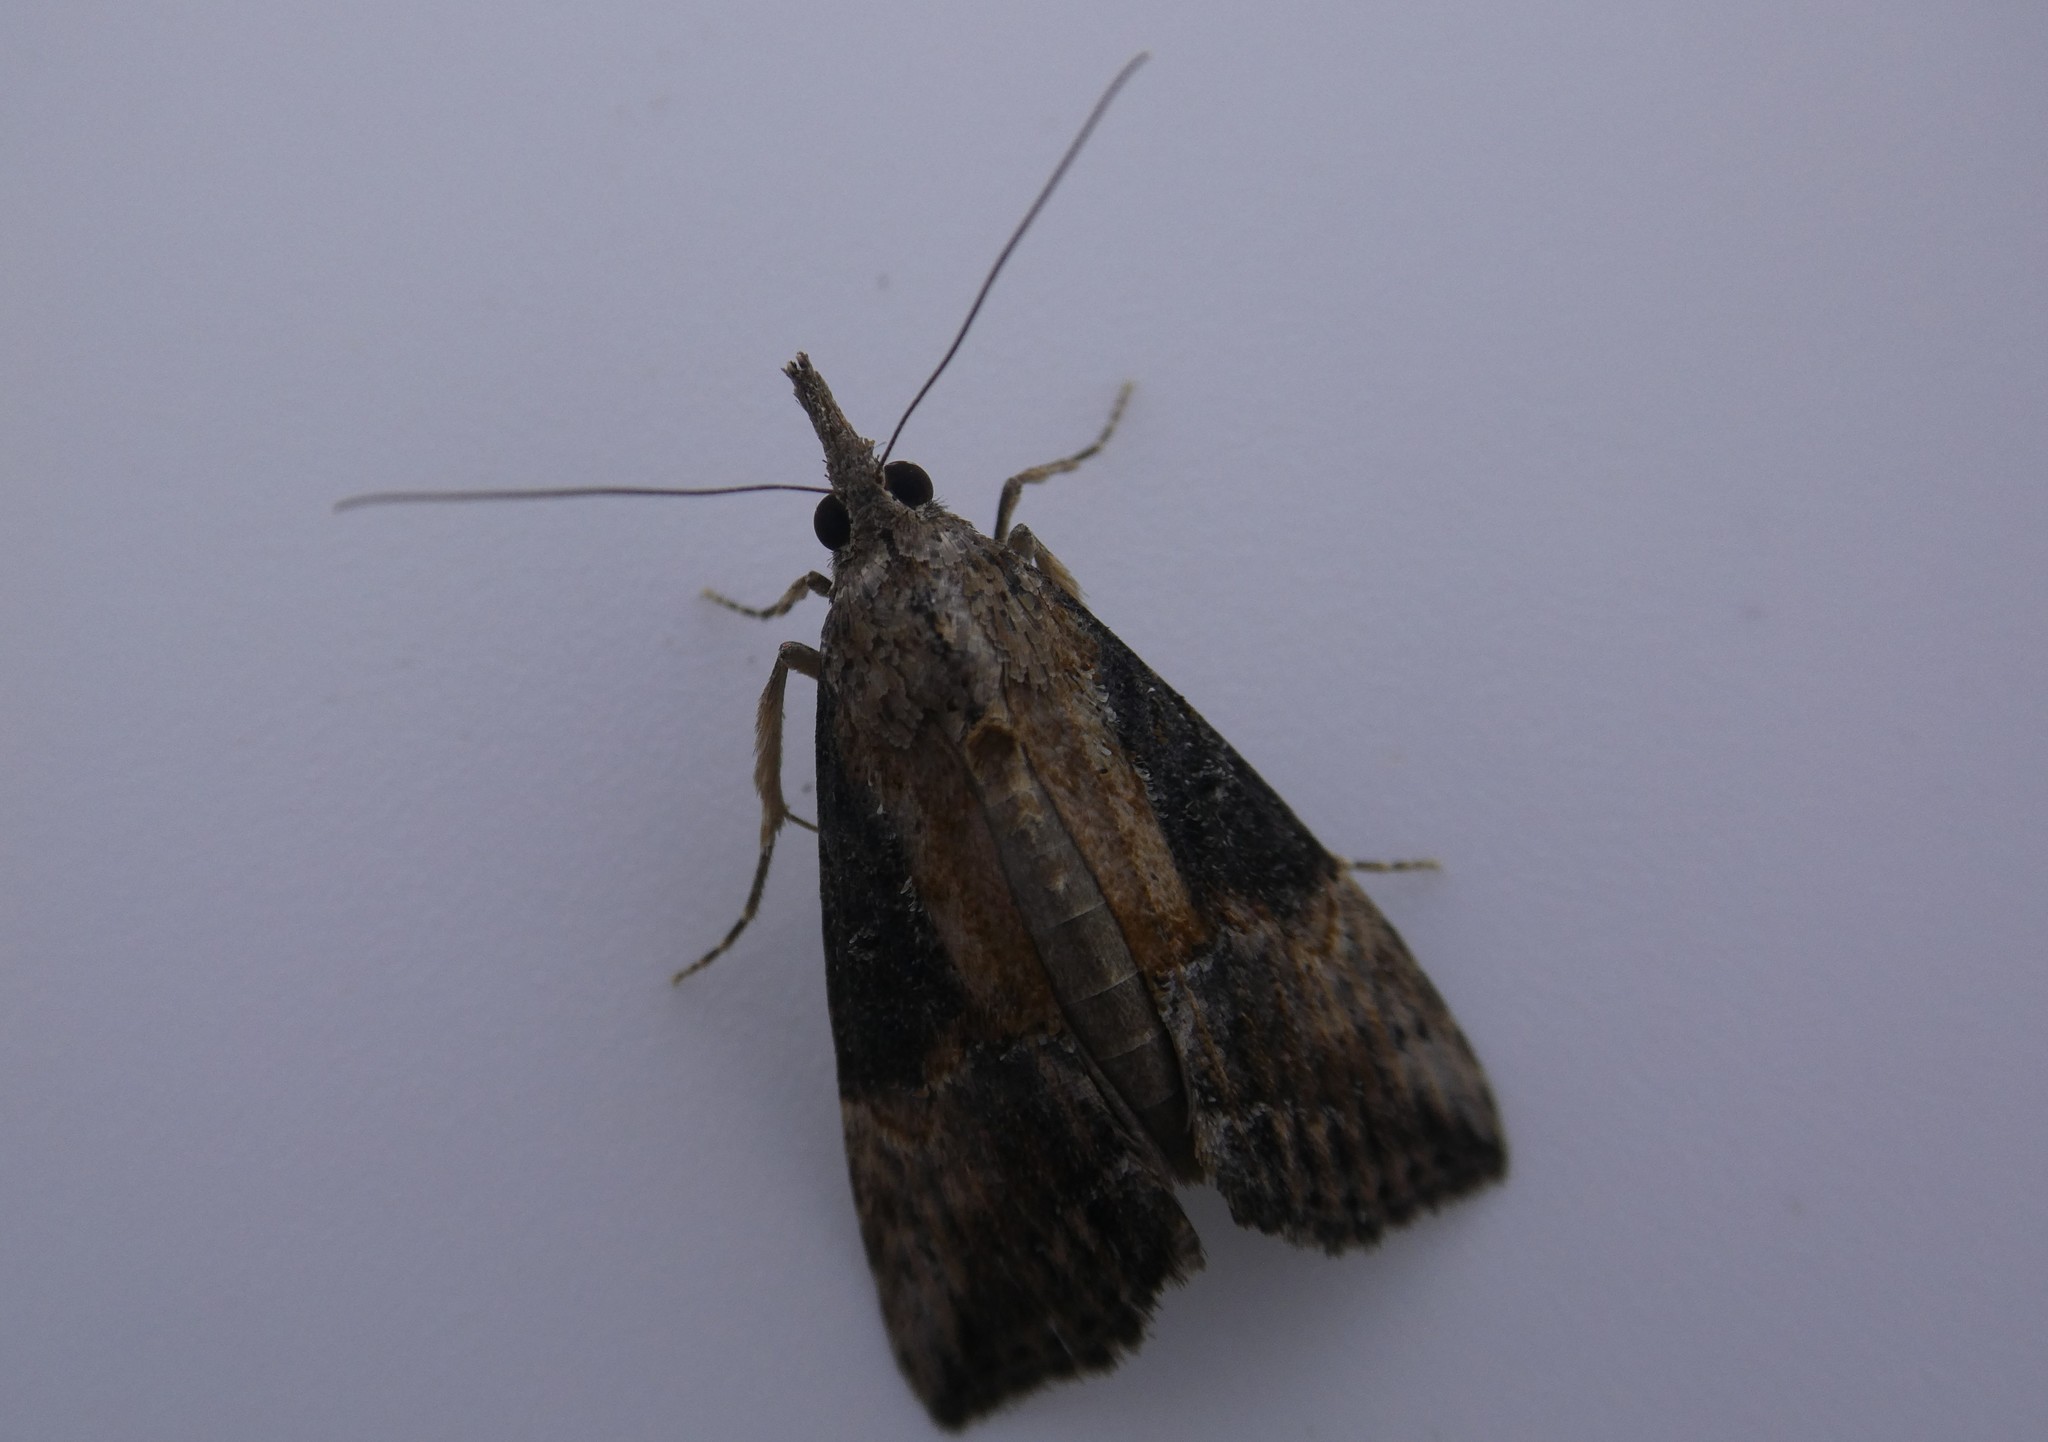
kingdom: Animalia
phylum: Arthropoda
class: Insecta
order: Lepidoptera
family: Erebidae
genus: Hypena
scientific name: Hypena scabra
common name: Green cloverworm
